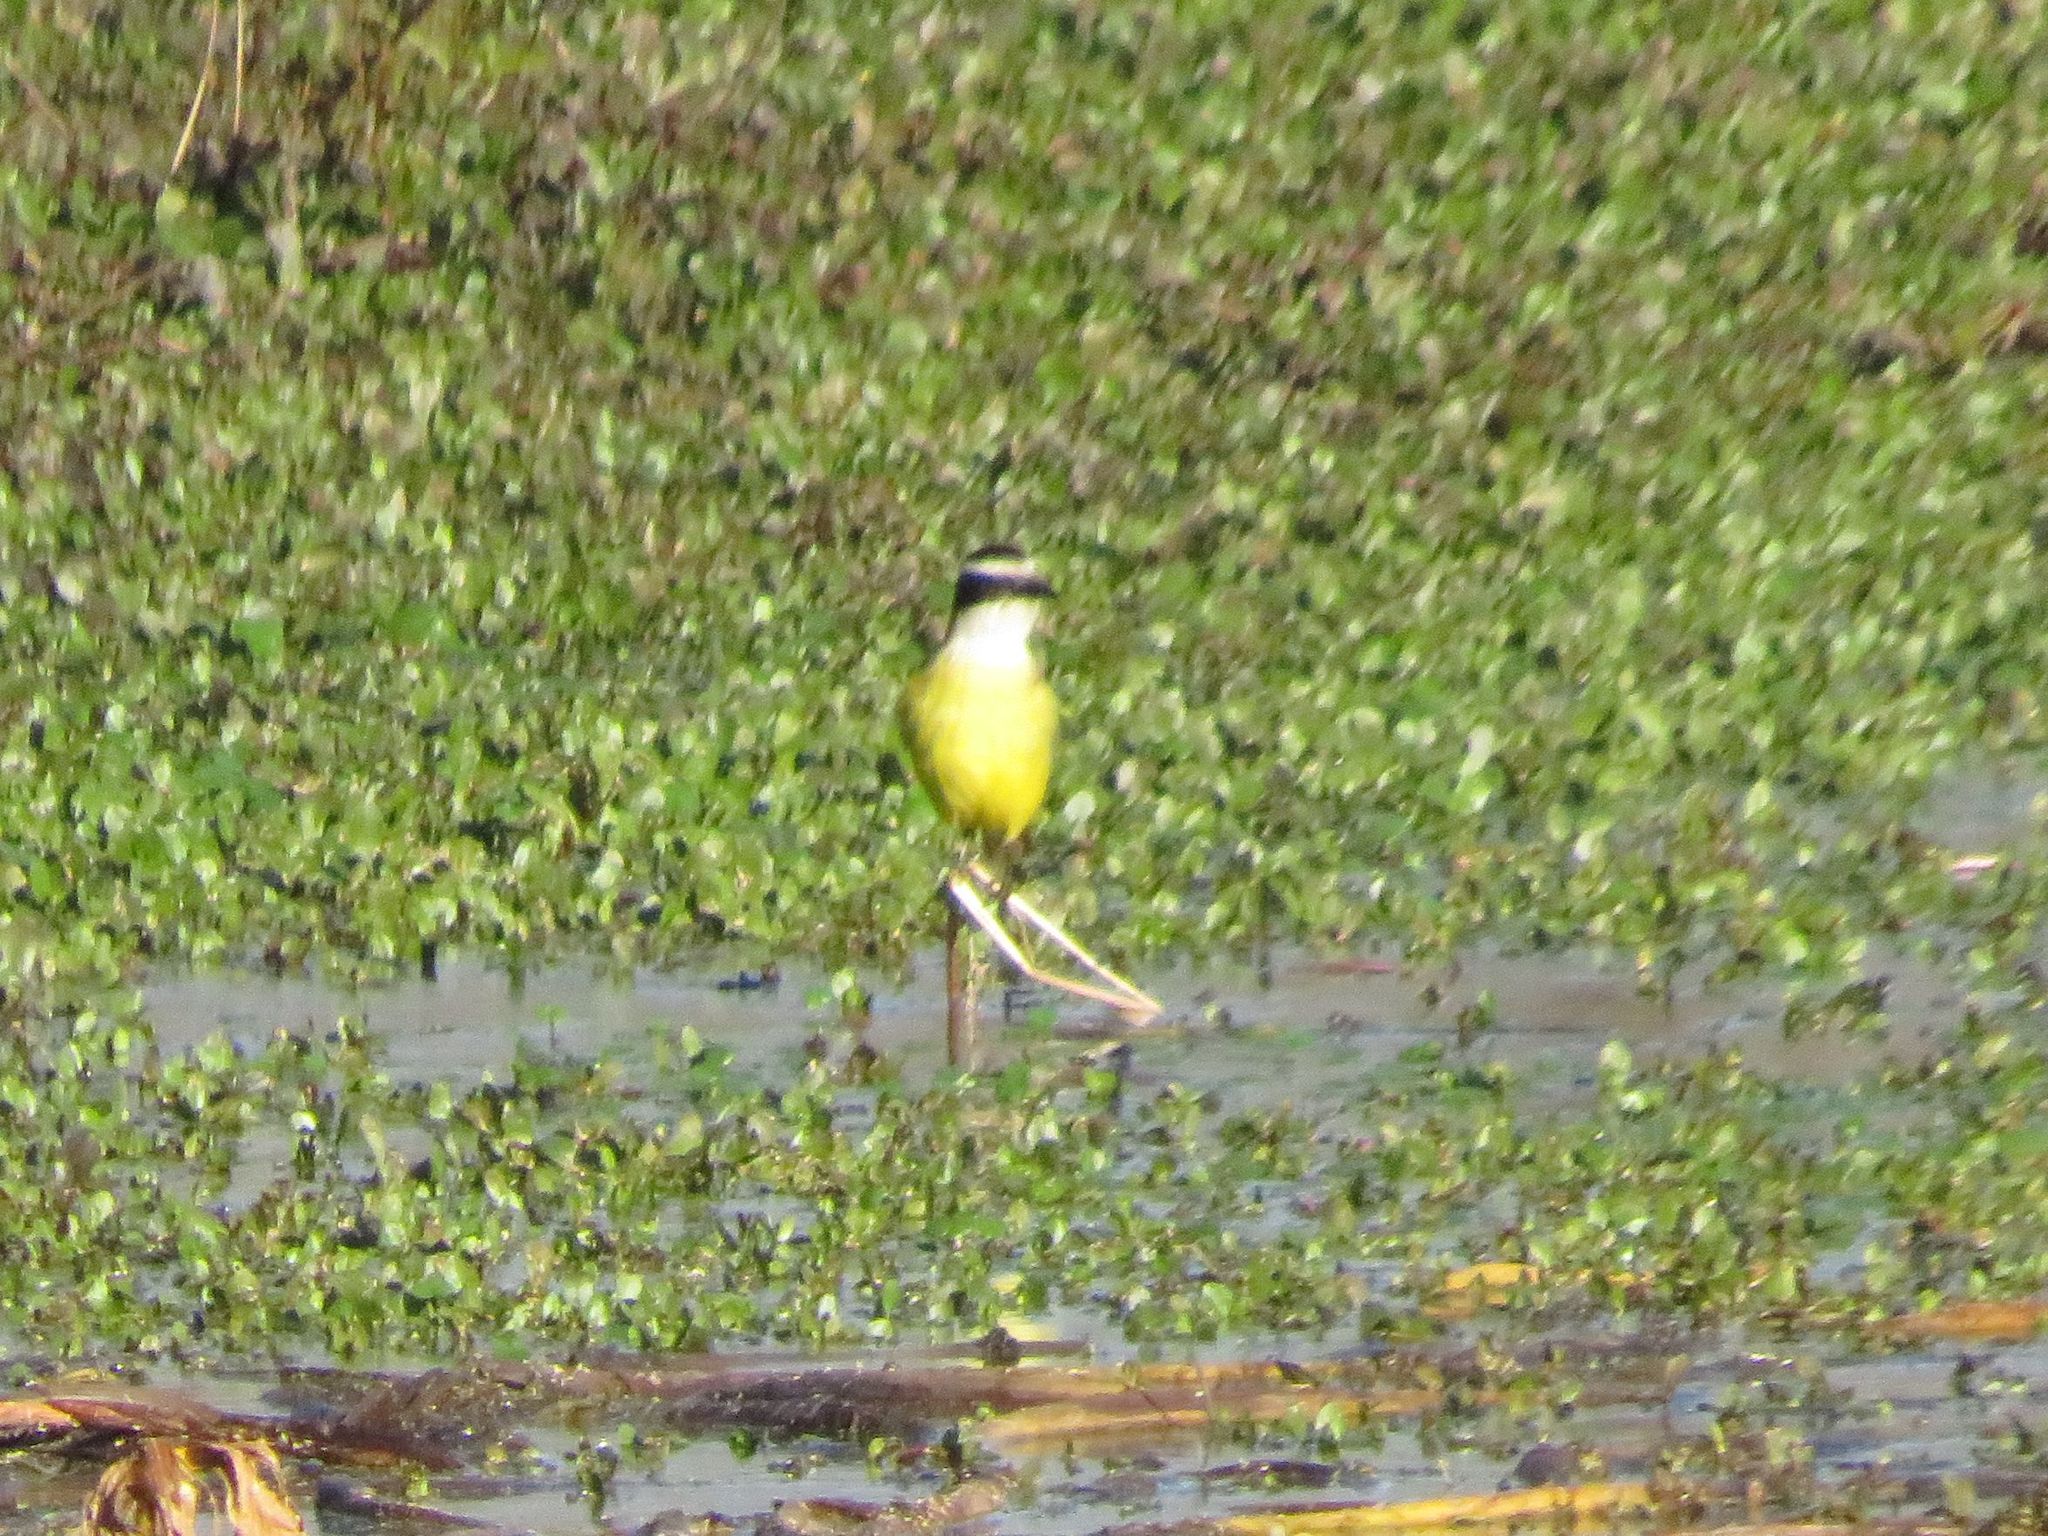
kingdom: Animalia
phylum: Chordata
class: Aves
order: Passeriformes
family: Tyrannidae
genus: Pitangus
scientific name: Pitangus sulphuratus
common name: Great kiskadee
